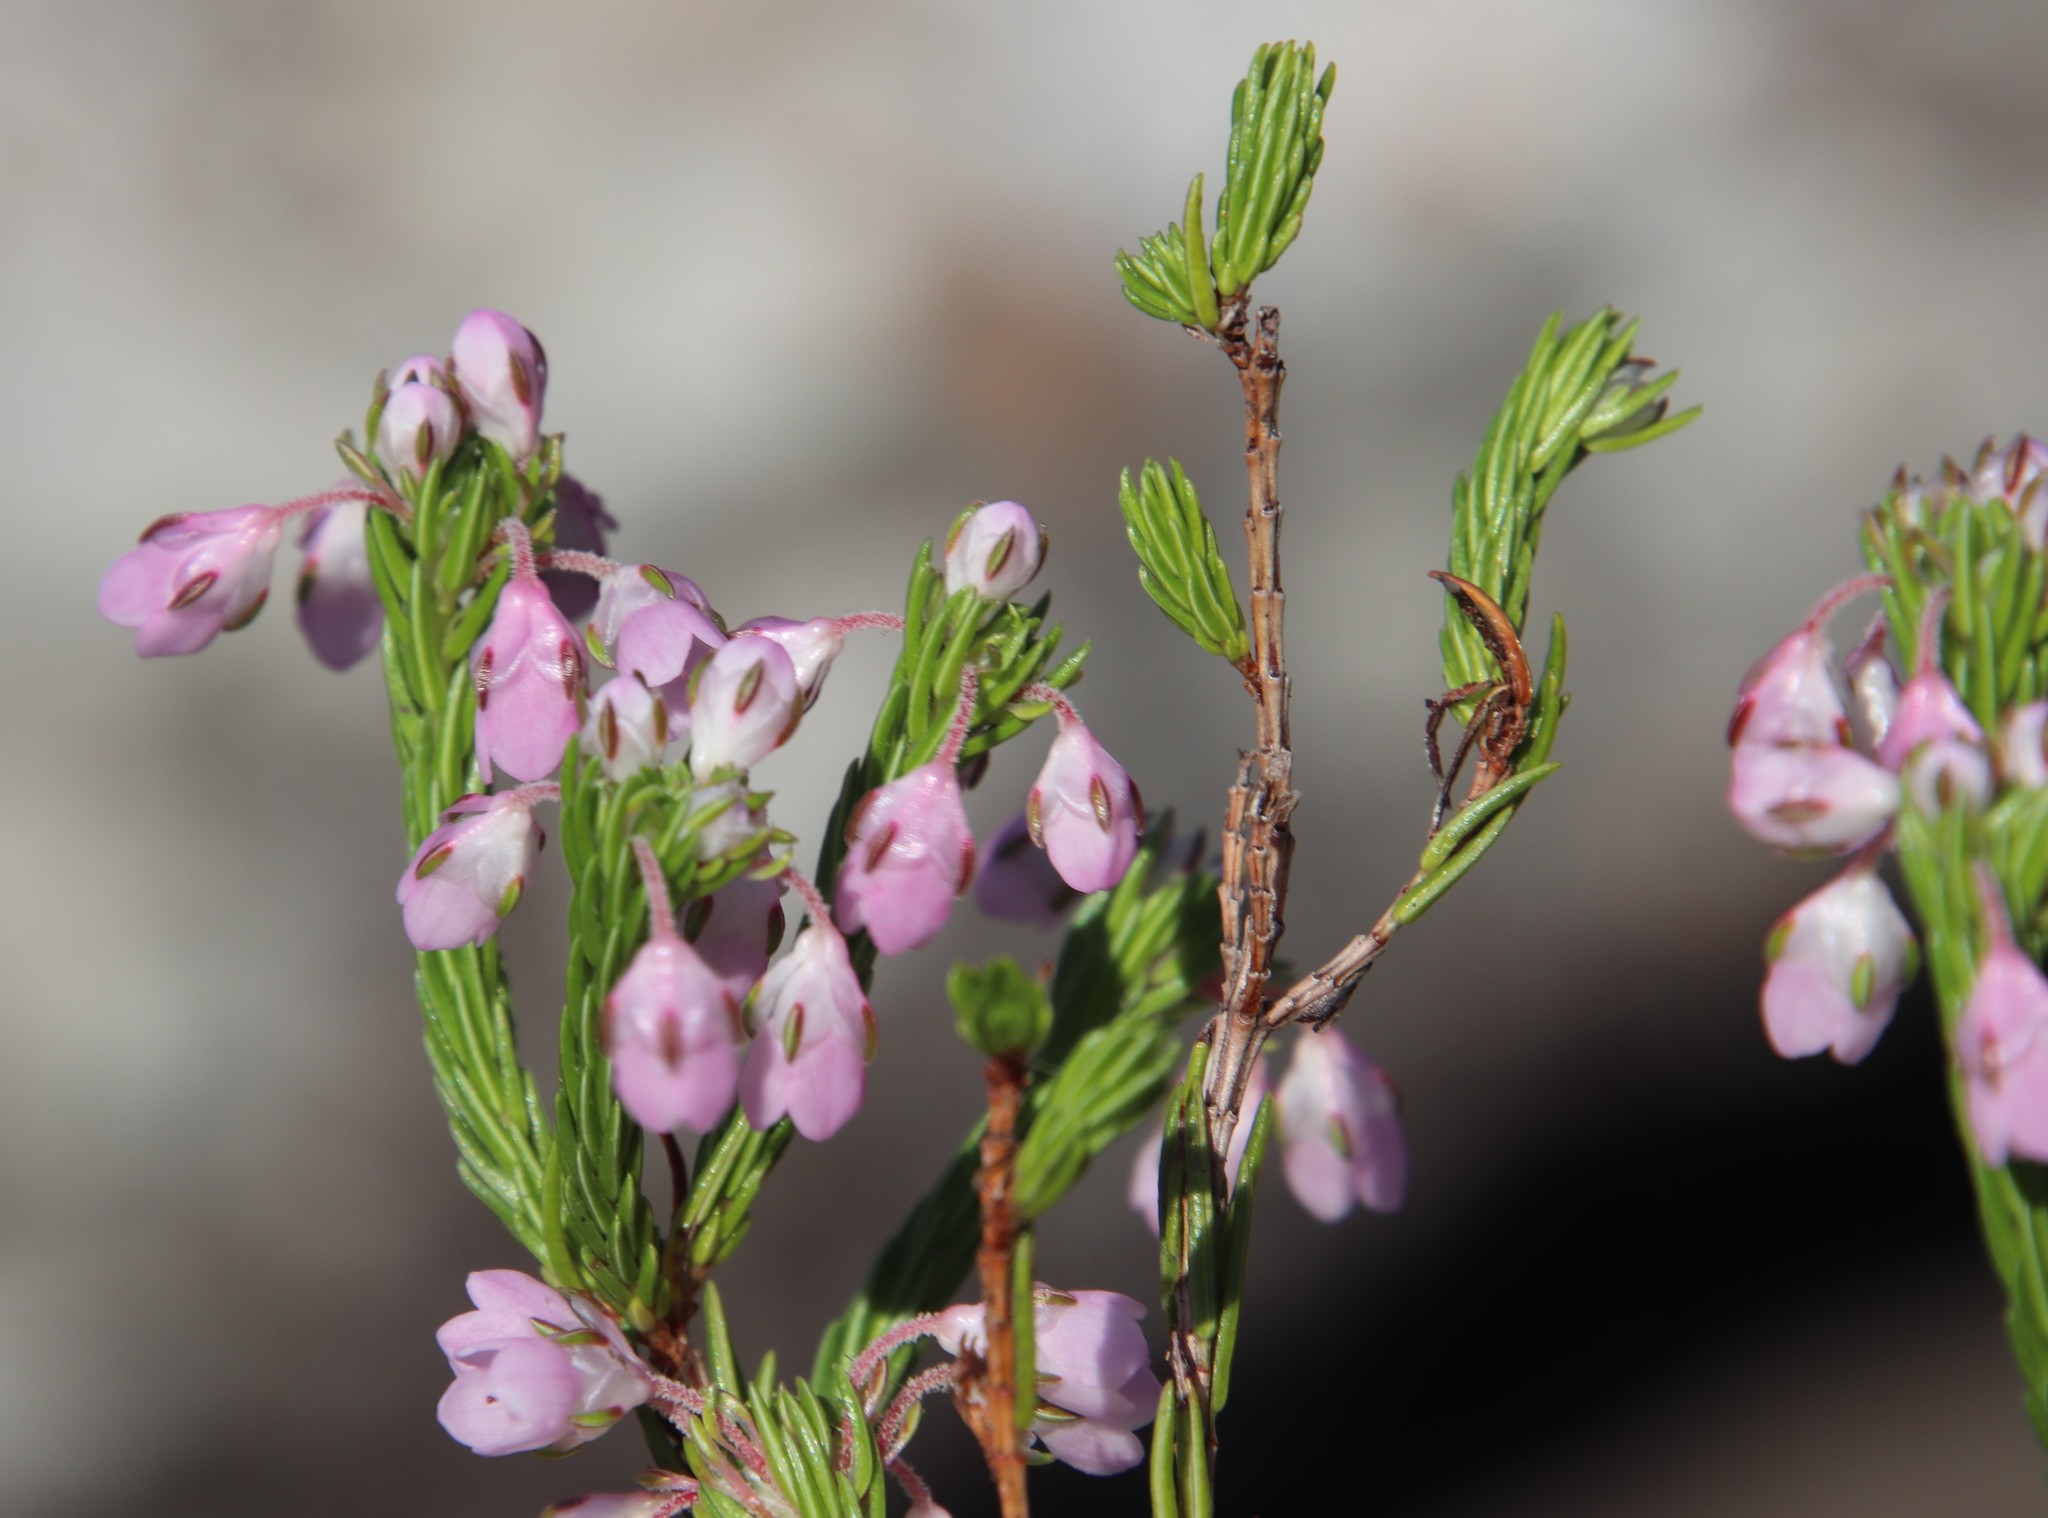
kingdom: Plantae
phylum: Tracheophyta
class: Magnoliopsida
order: Ericales
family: Ericaceae
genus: Erica
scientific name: Erica cubica
